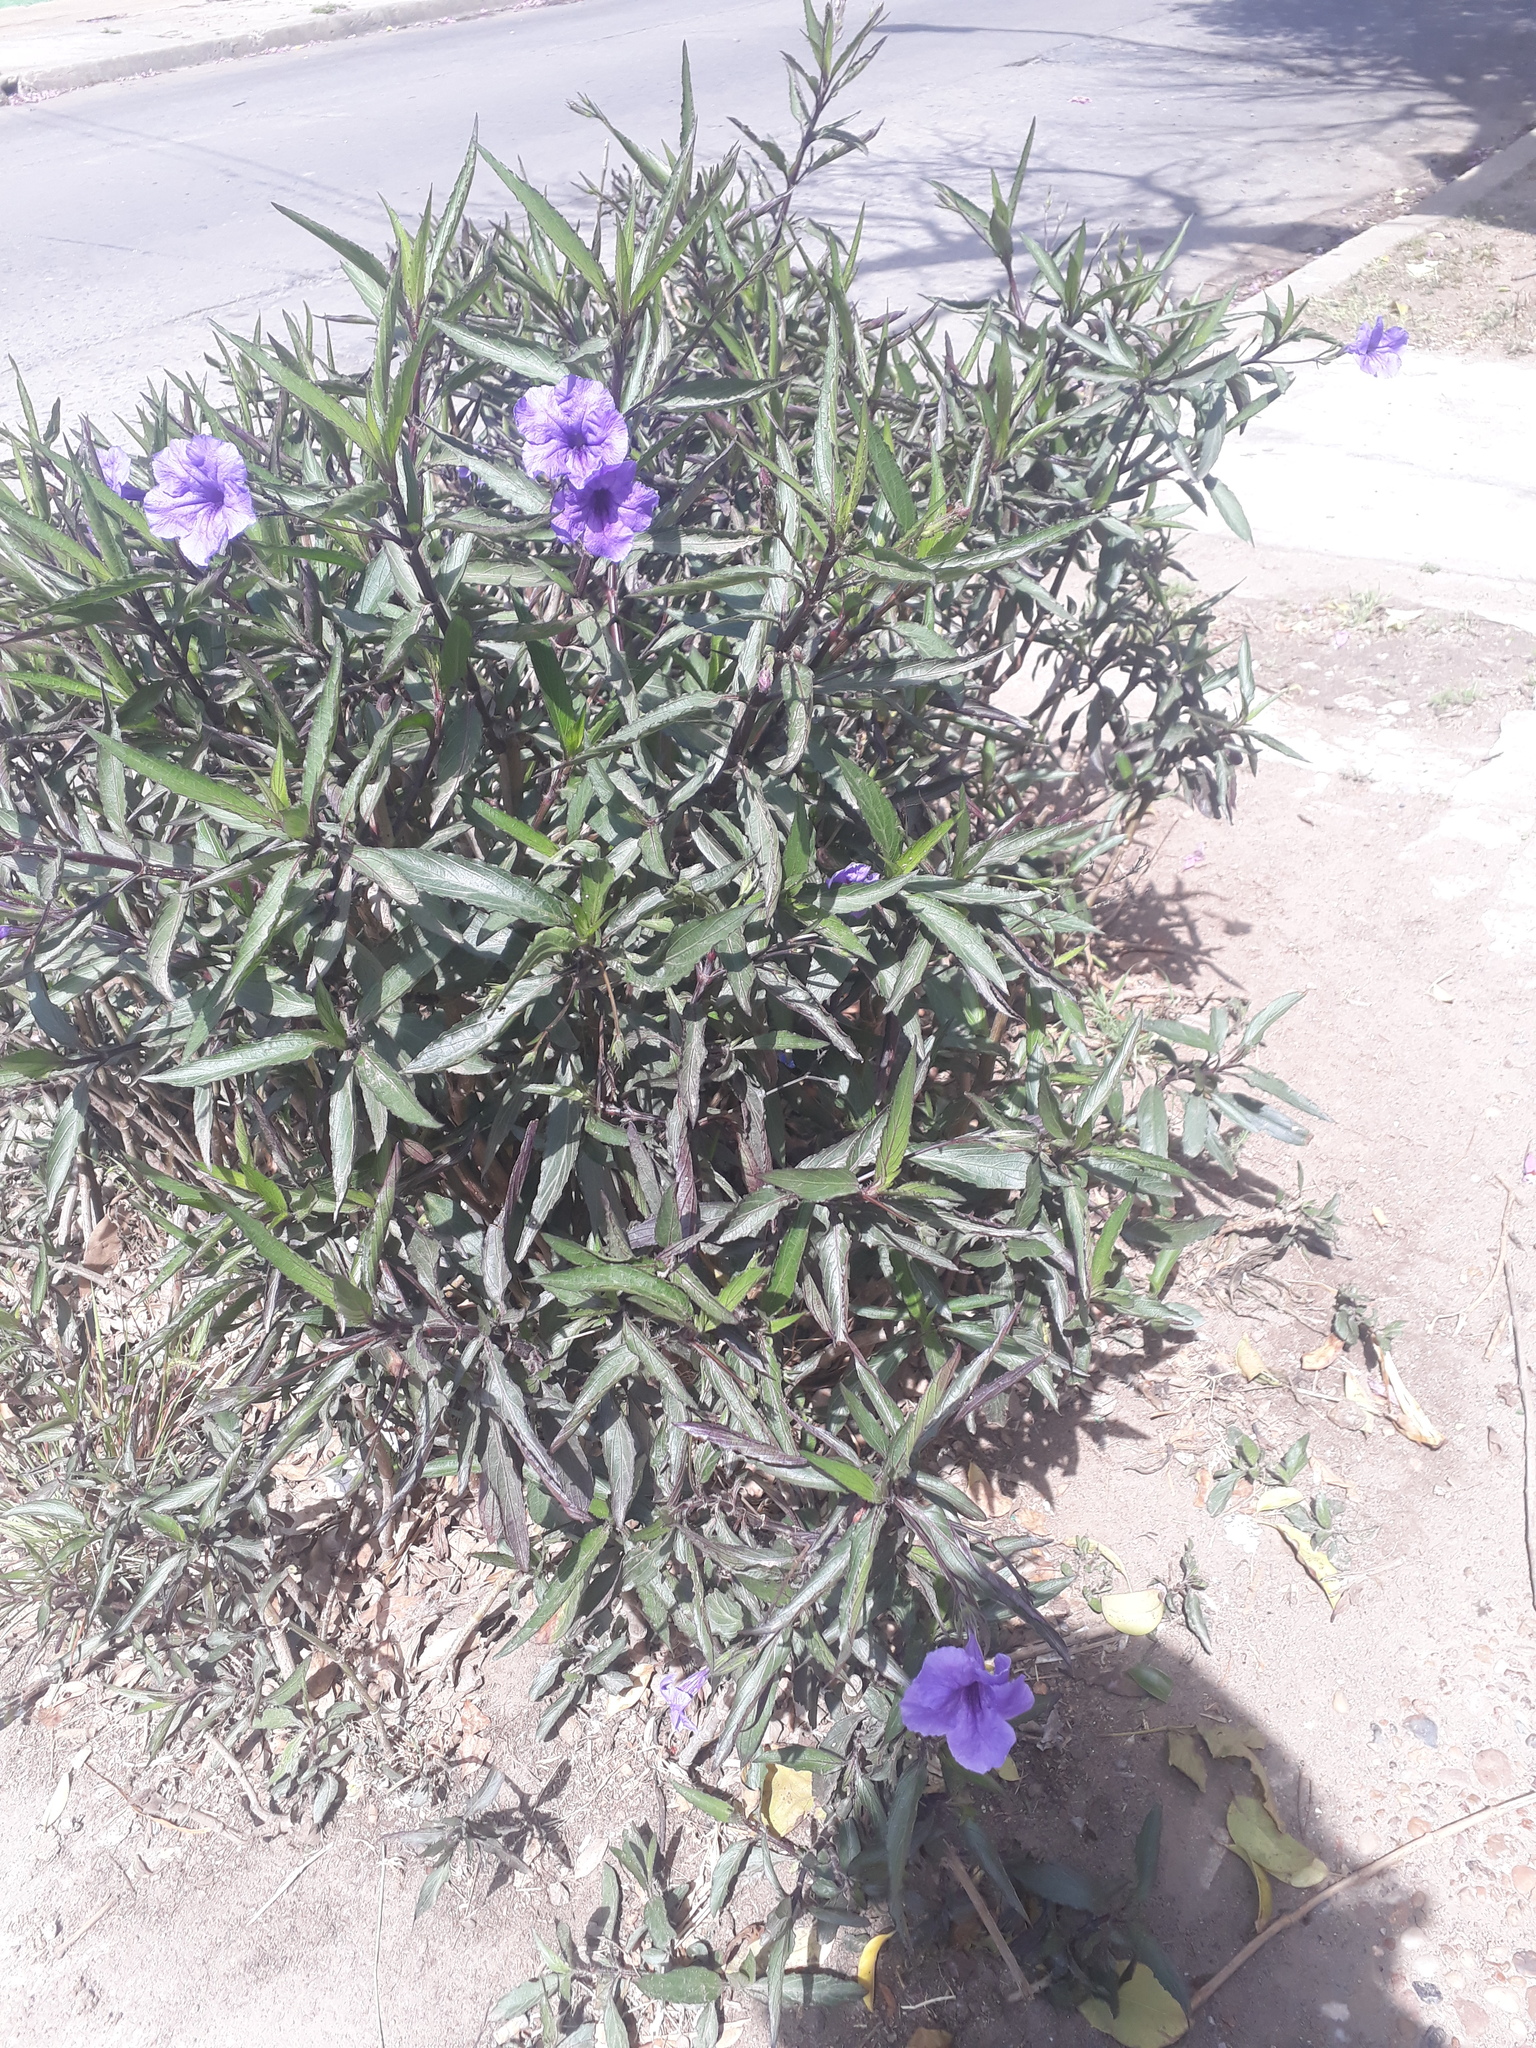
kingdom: Plantae
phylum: Tracheophyta
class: Magnoliopsida
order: Lamiales
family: Acanthaceae
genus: Ruellia
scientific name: Ruellia simplex
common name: Softseed wild petunia
